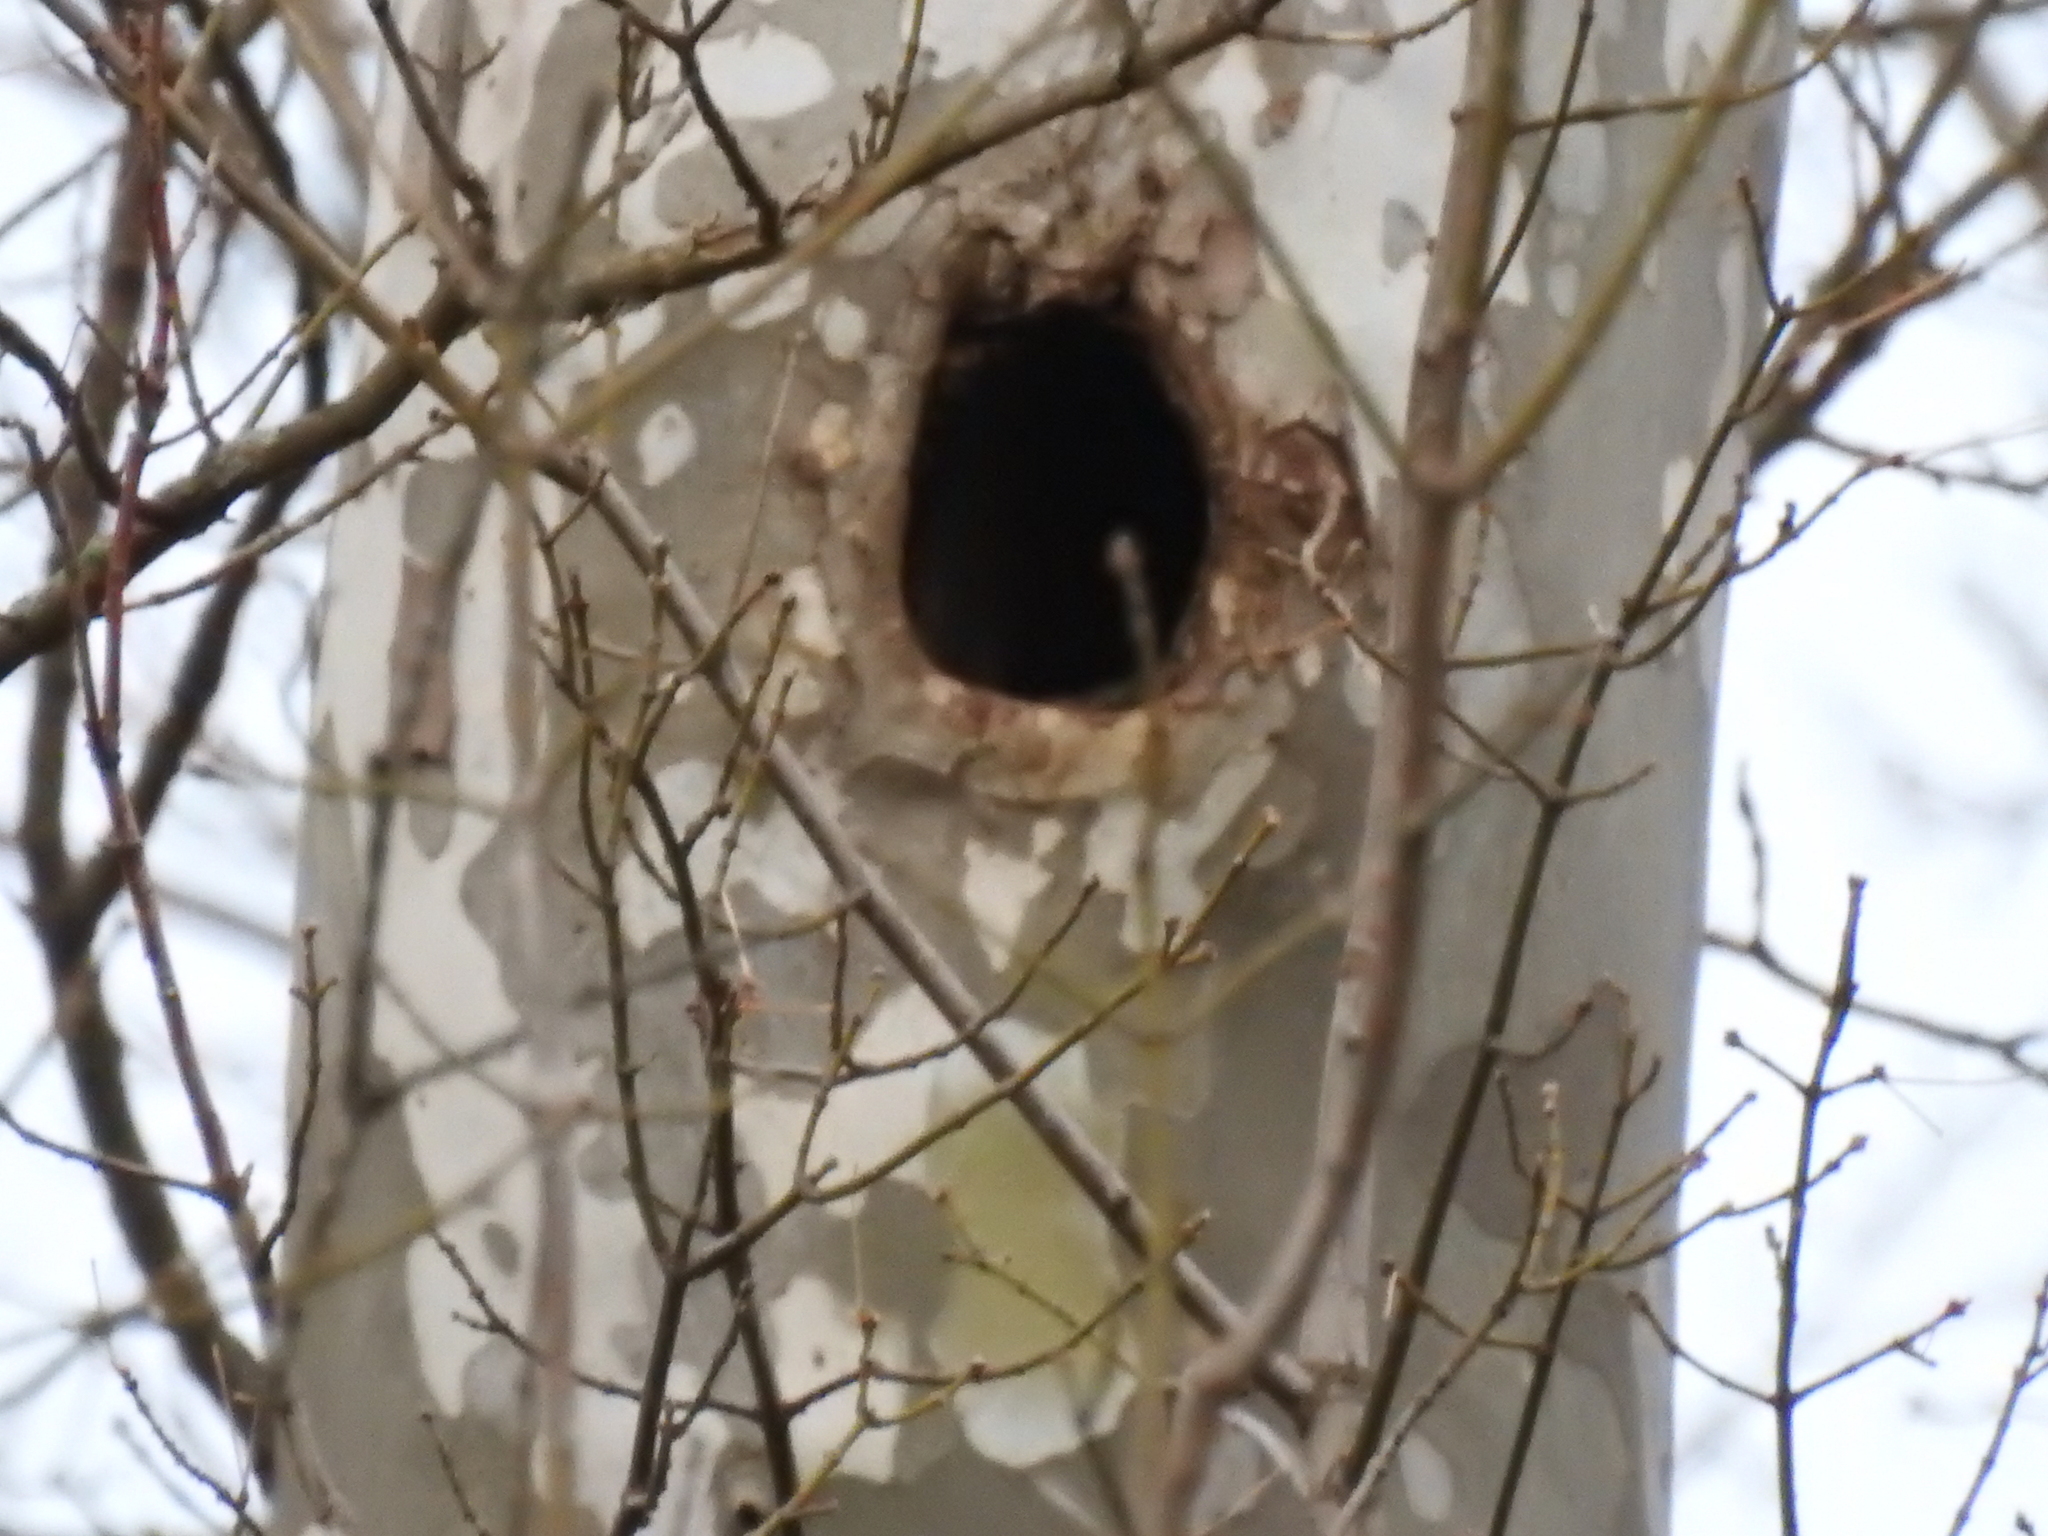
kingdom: Plantae
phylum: Tracheophyta
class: Magnoliopsida
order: Proteales
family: Platanaceae
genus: Platanus
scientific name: Platanus occidentalis
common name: American sycamore
